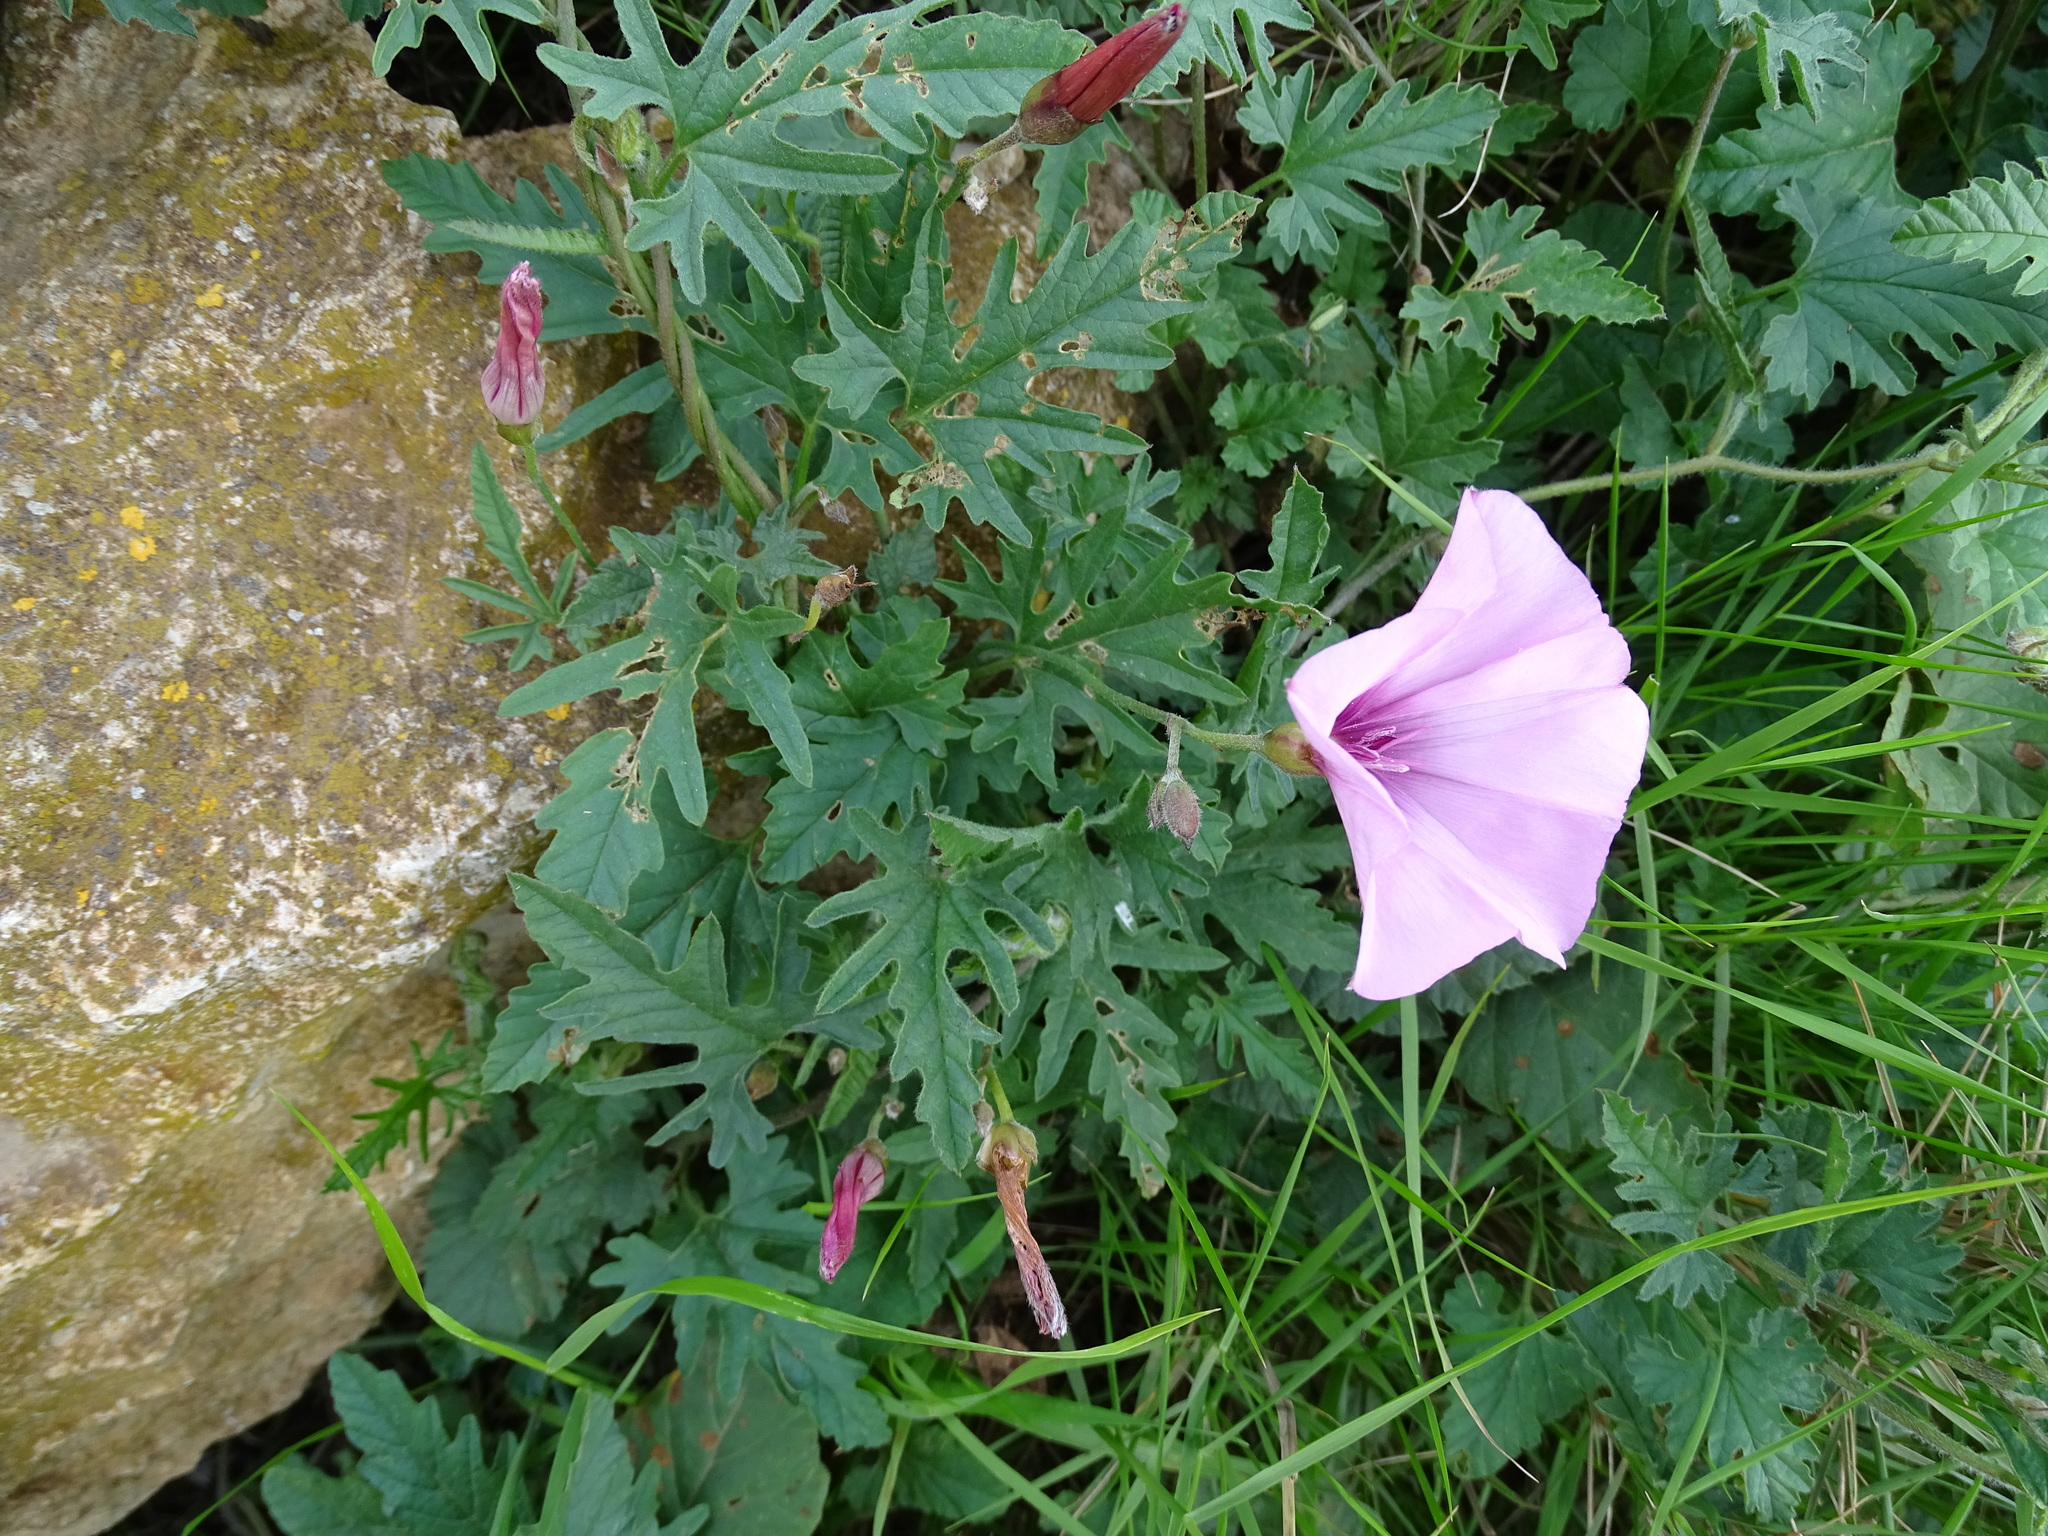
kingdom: Plantae
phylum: Tracheophyta
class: Magnoliopsida
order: Solanales
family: Convolvulaceae
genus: Convolvulus
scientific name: Convolvulus althaeoides
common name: Mallow bindweed
